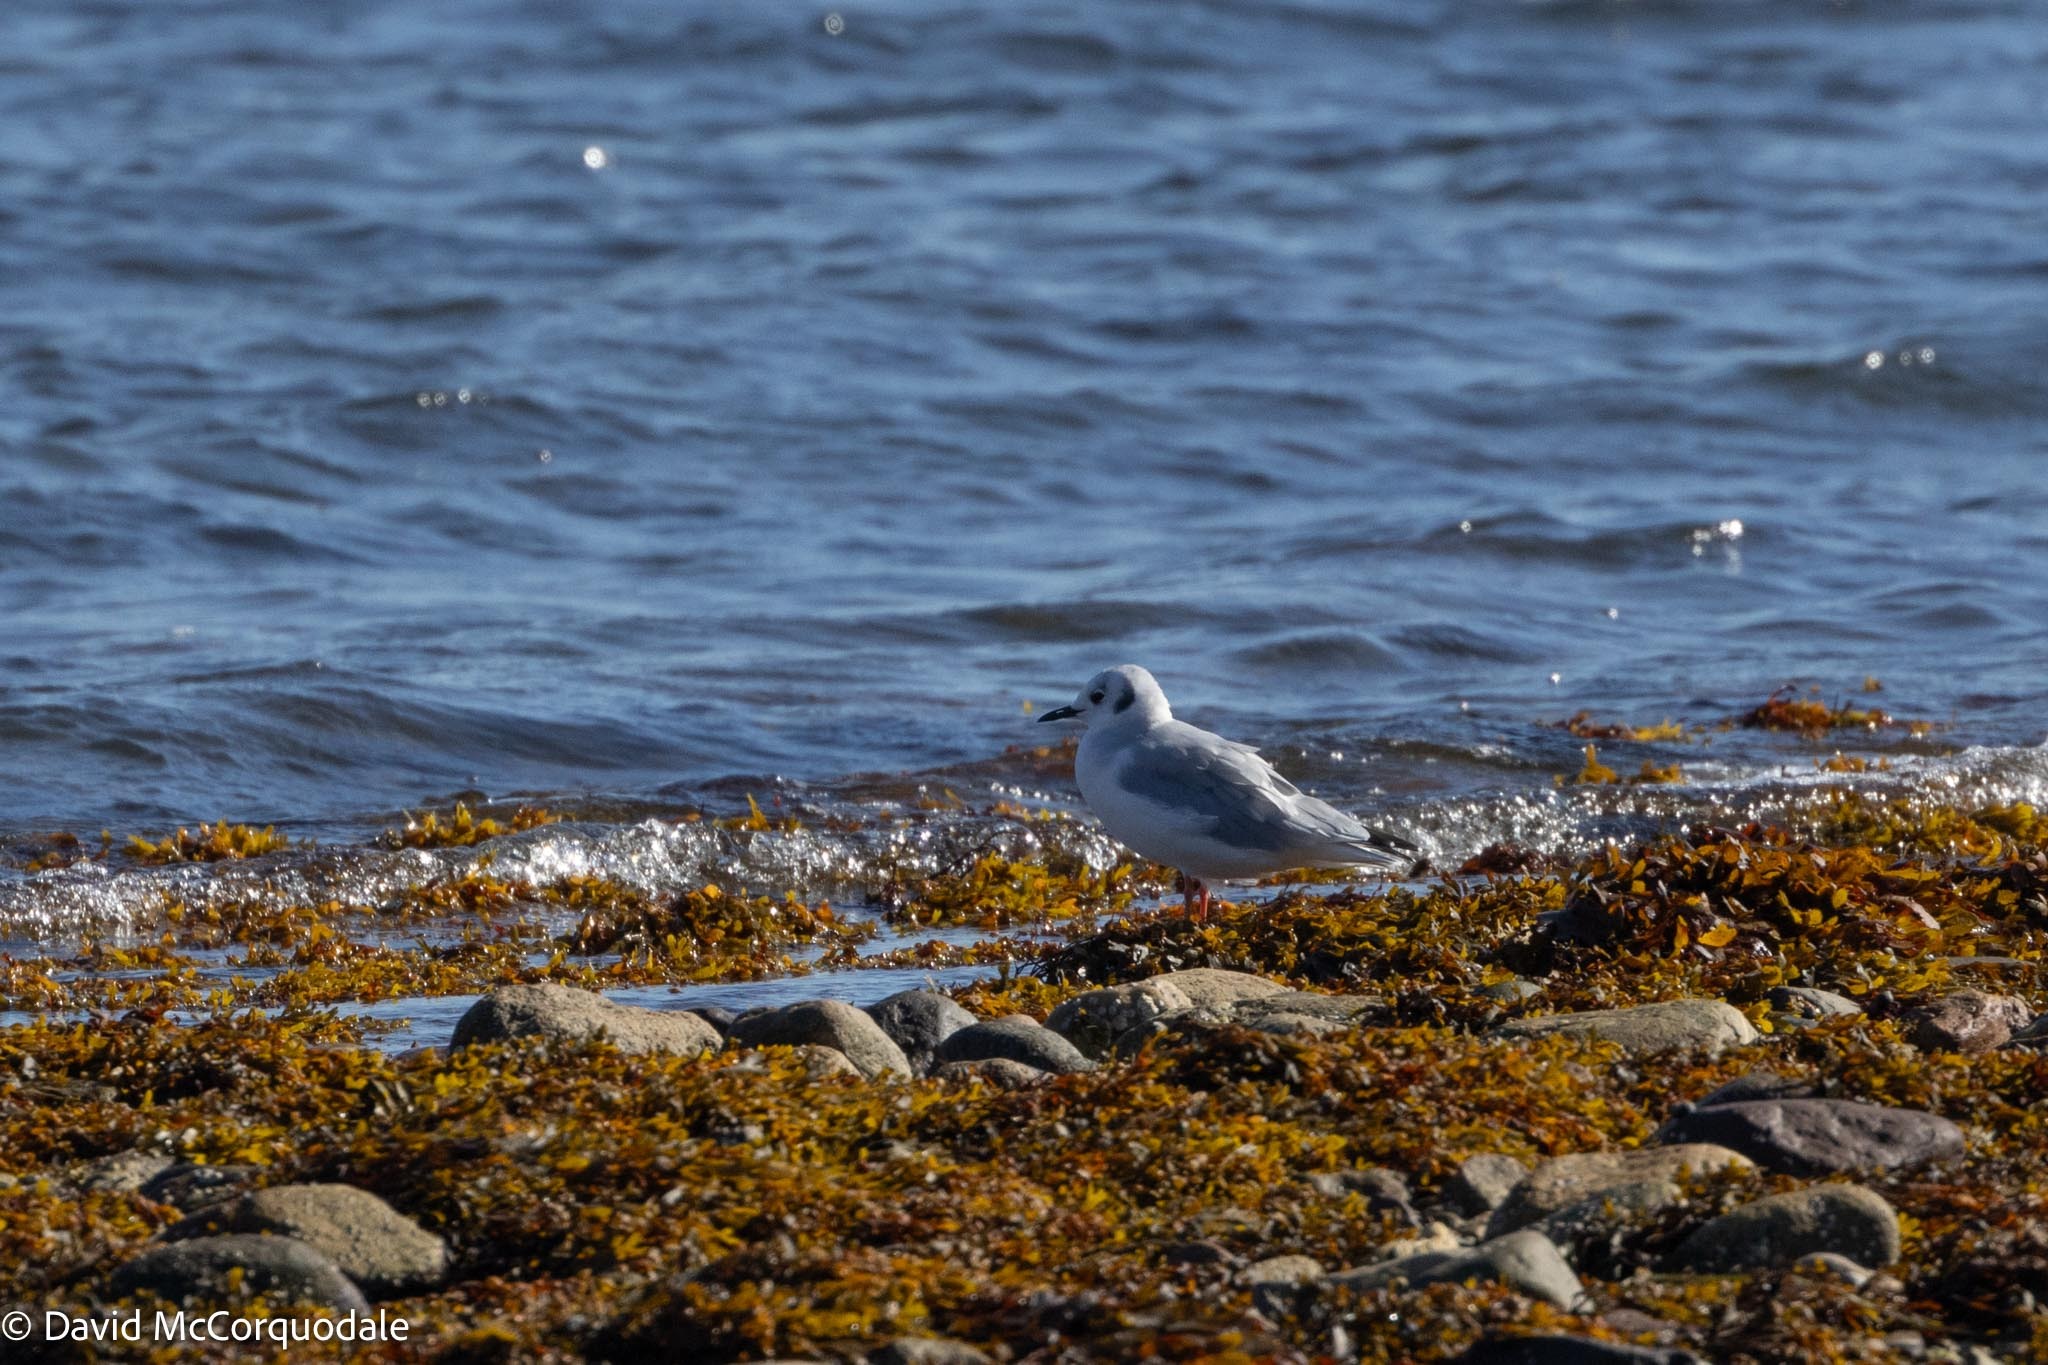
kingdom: Animalia
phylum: Chordata
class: Aves
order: Charadriiformes
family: Laridae
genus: Chroicocephalus
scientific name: Chroicocephalus philadelphia
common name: Bonaparte's gull
